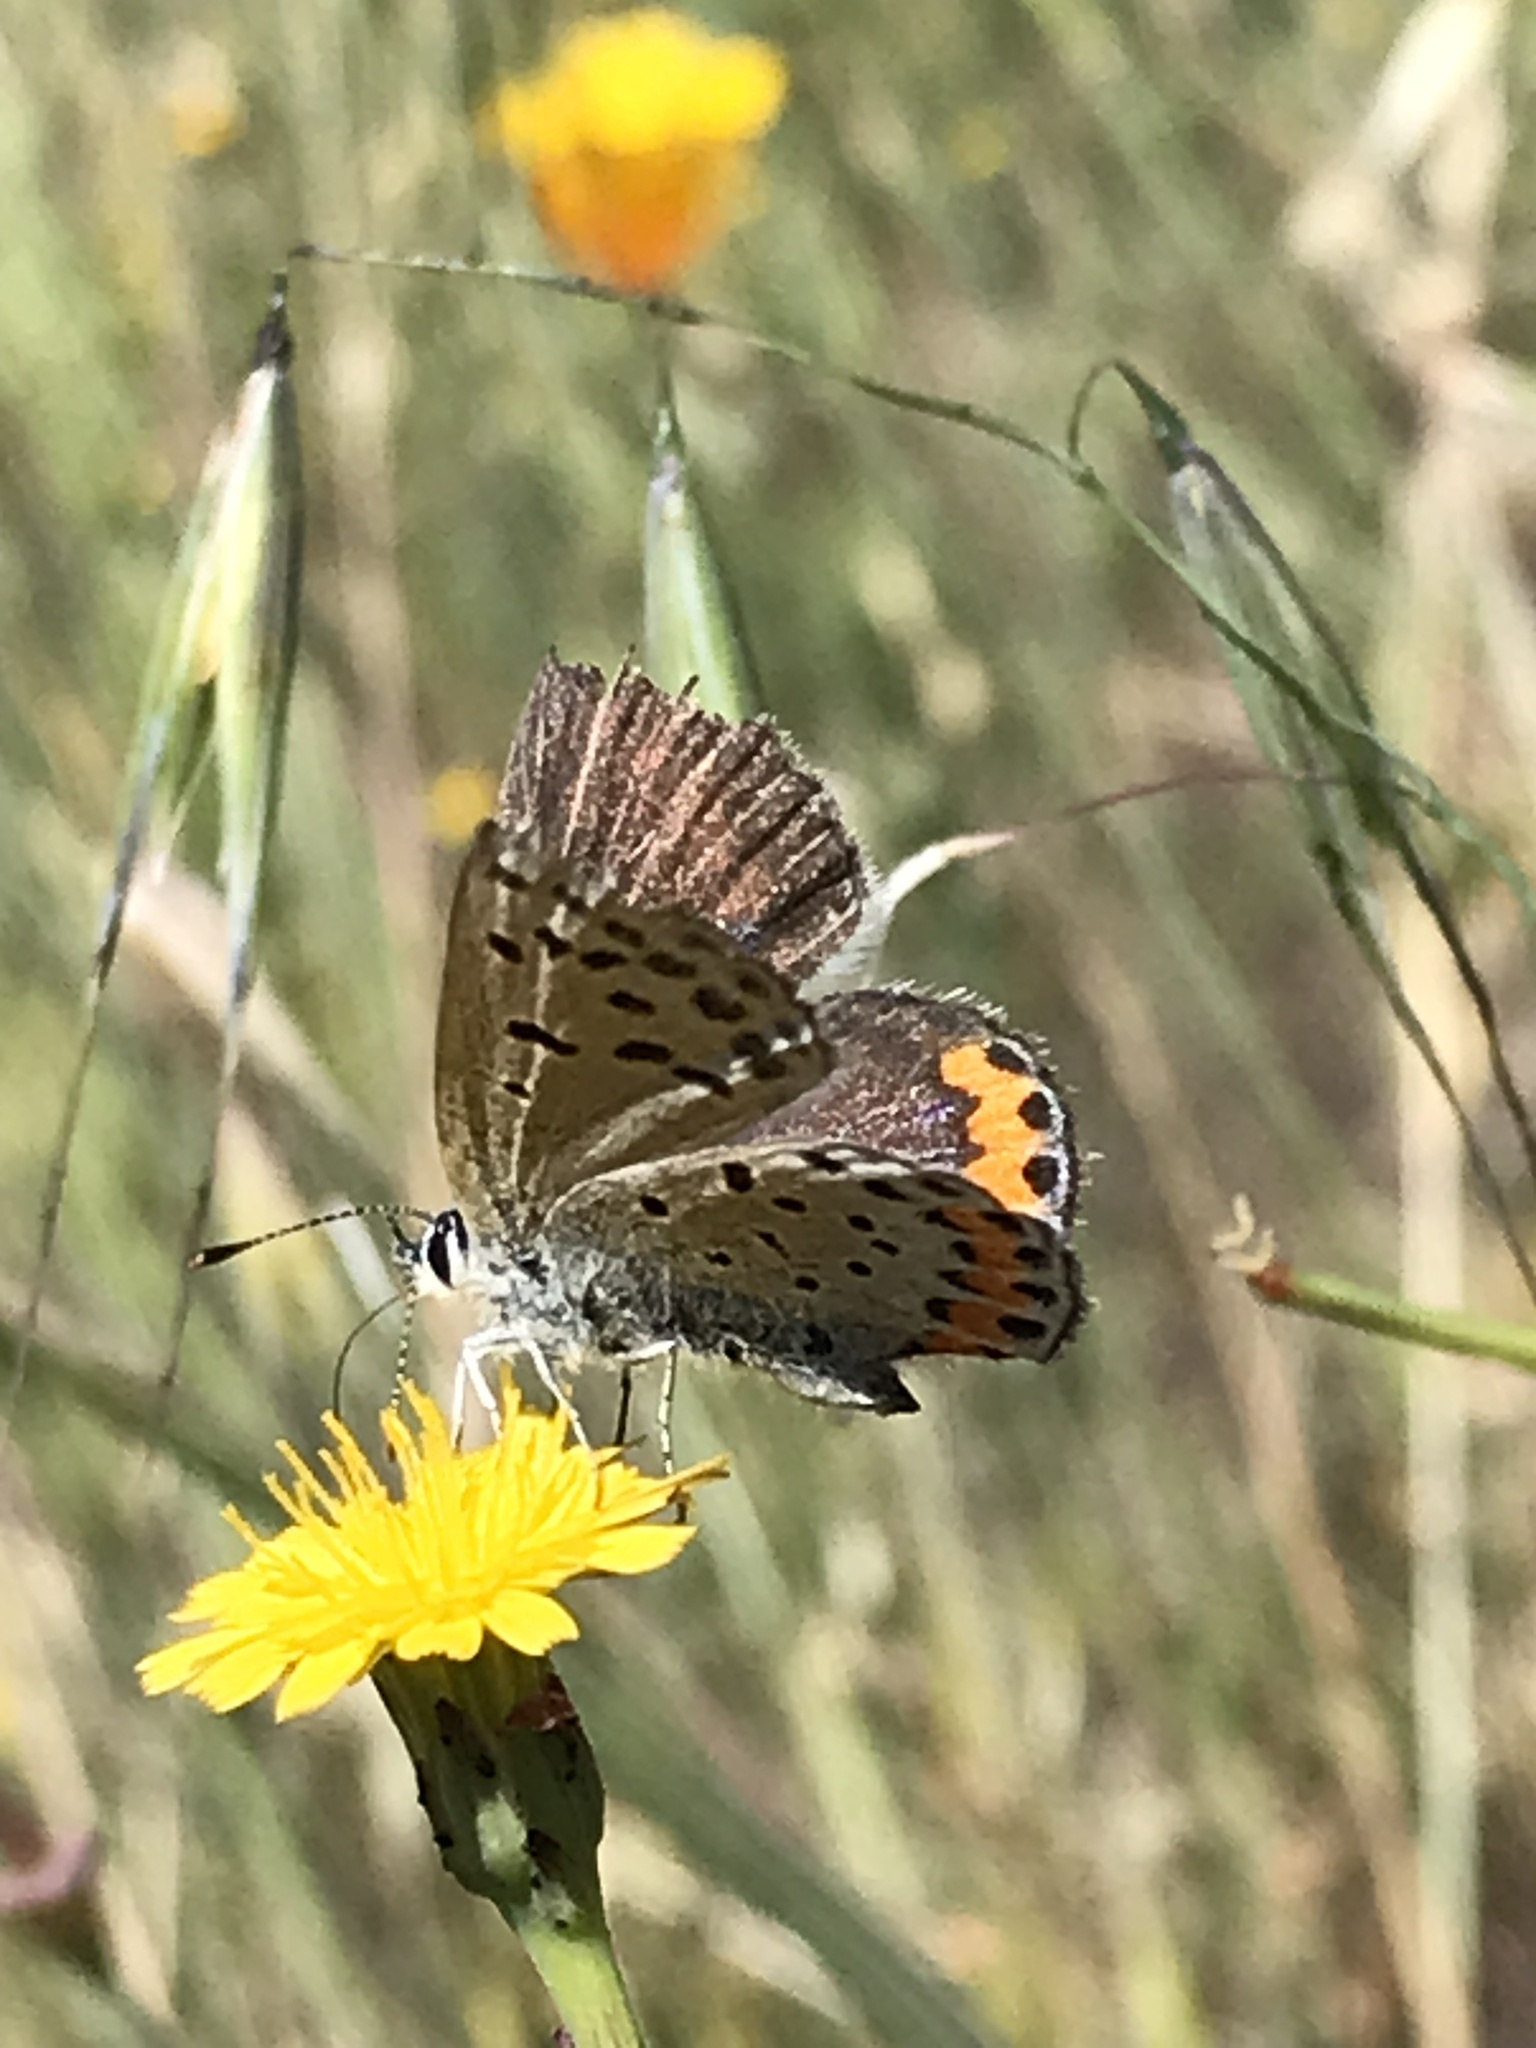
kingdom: Animalia
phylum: Arthropoda
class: Insecta
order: Lepidoptera
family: Lycaenidae
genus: Icaricia
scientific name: Icaricia acmon
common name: Acmon blue
